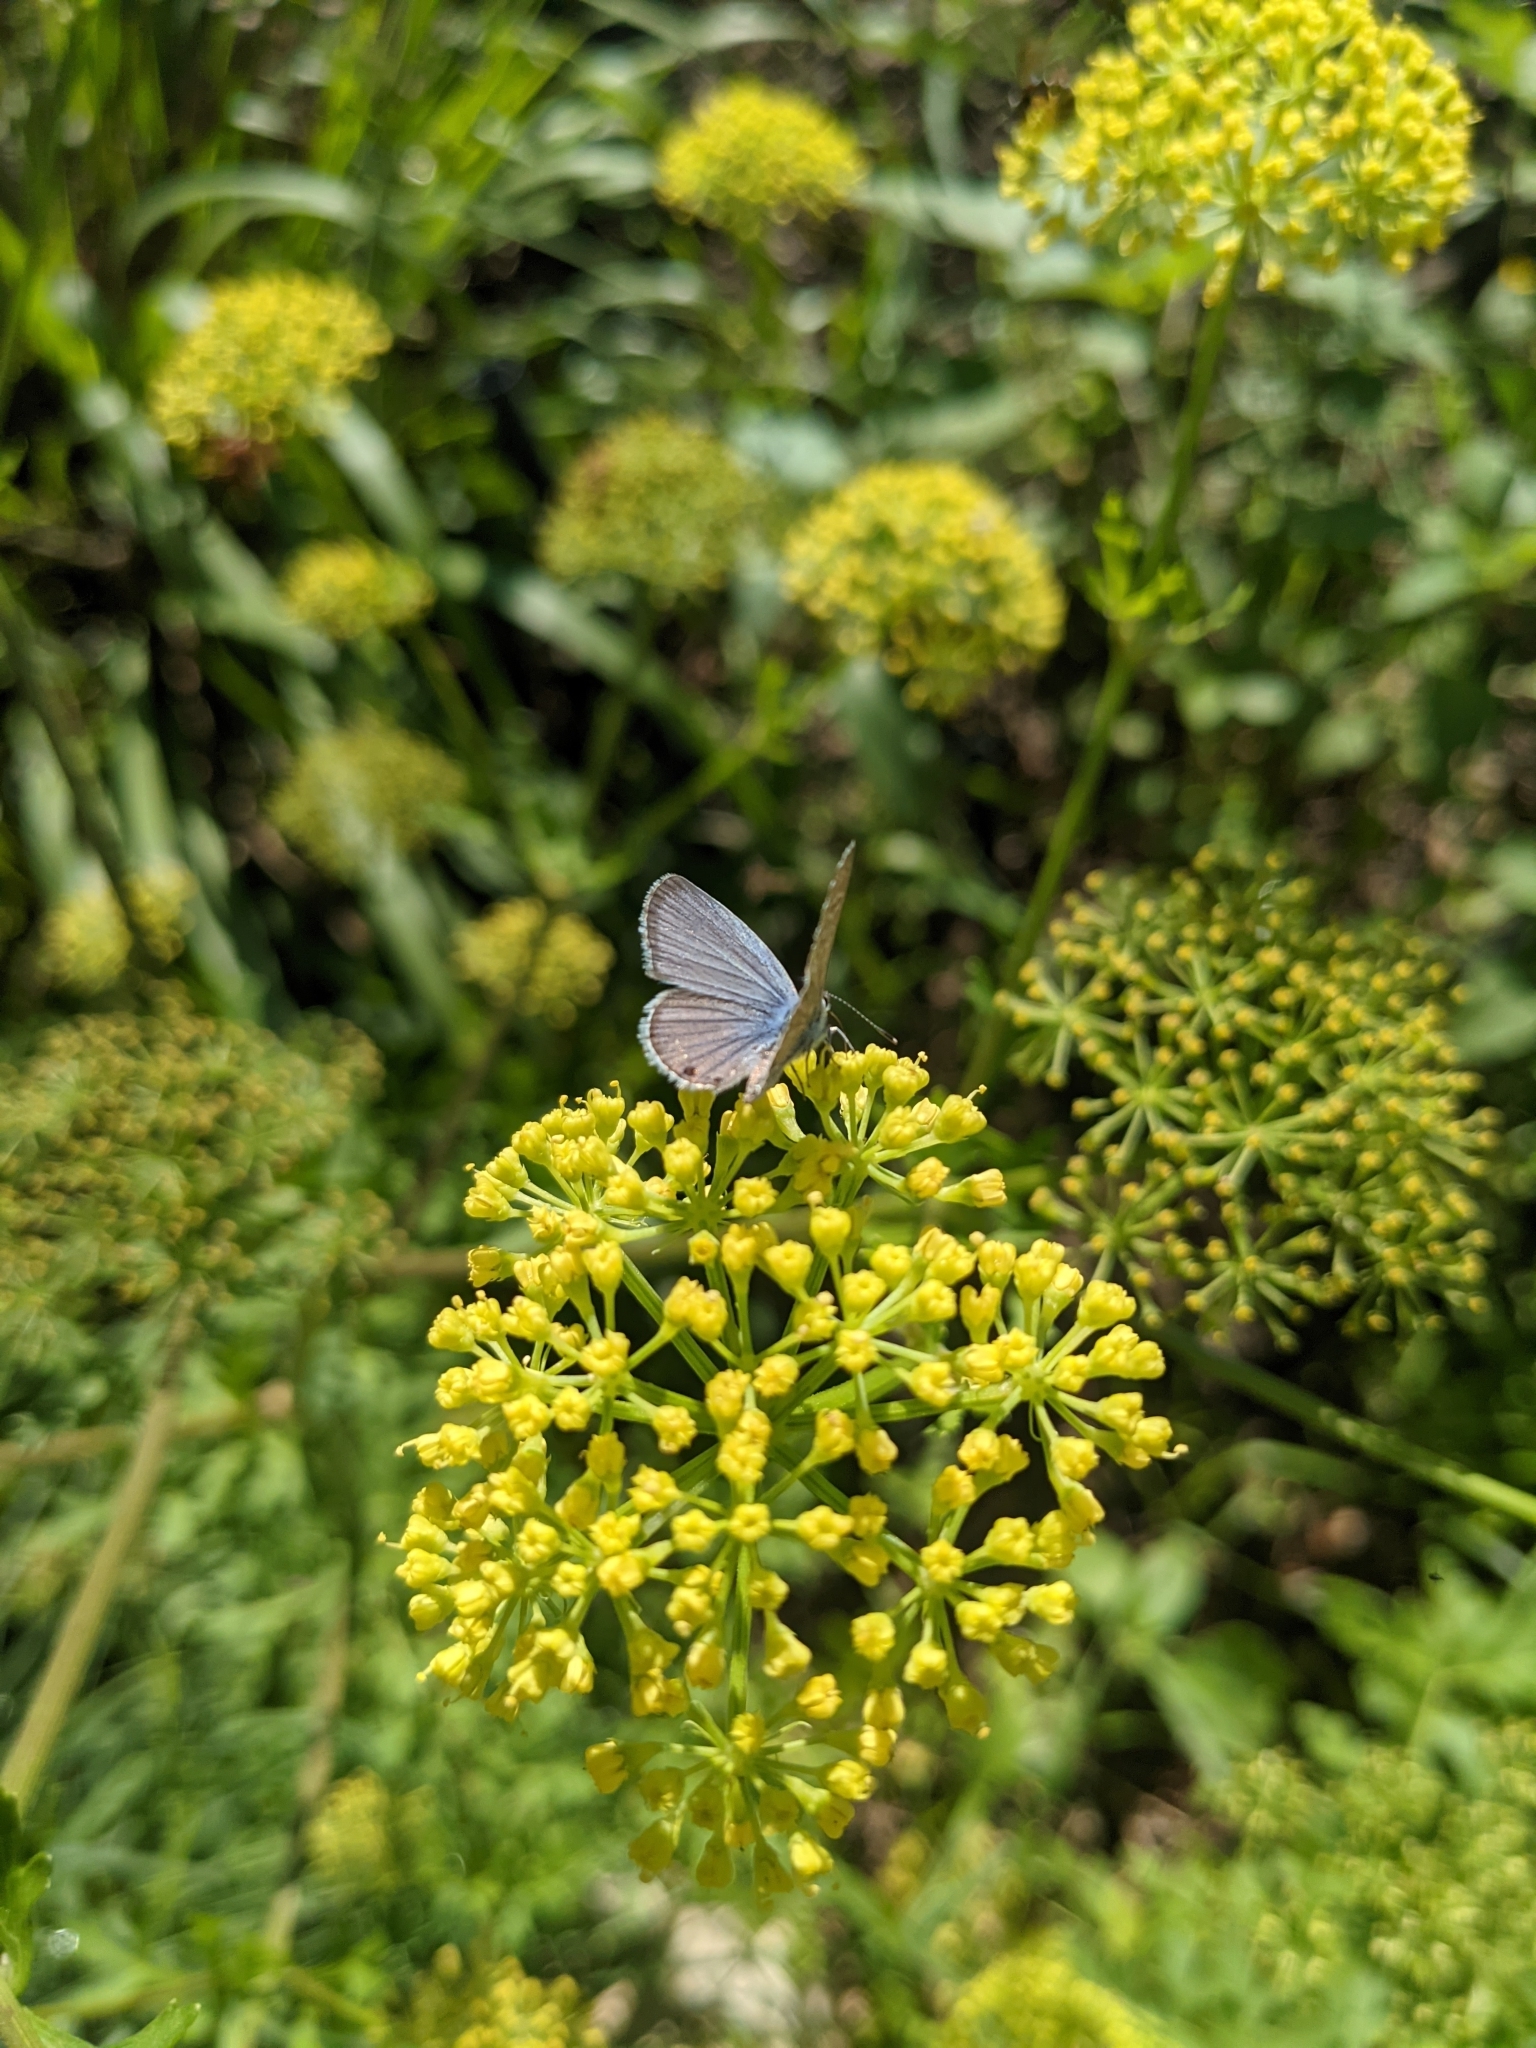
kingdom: Animalia
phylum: Arthropoda
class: Insecta
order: Lepidoptera
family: Lycaenidae
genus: Echinargus
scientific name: Echinargus isola
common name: Reakirt's blue
